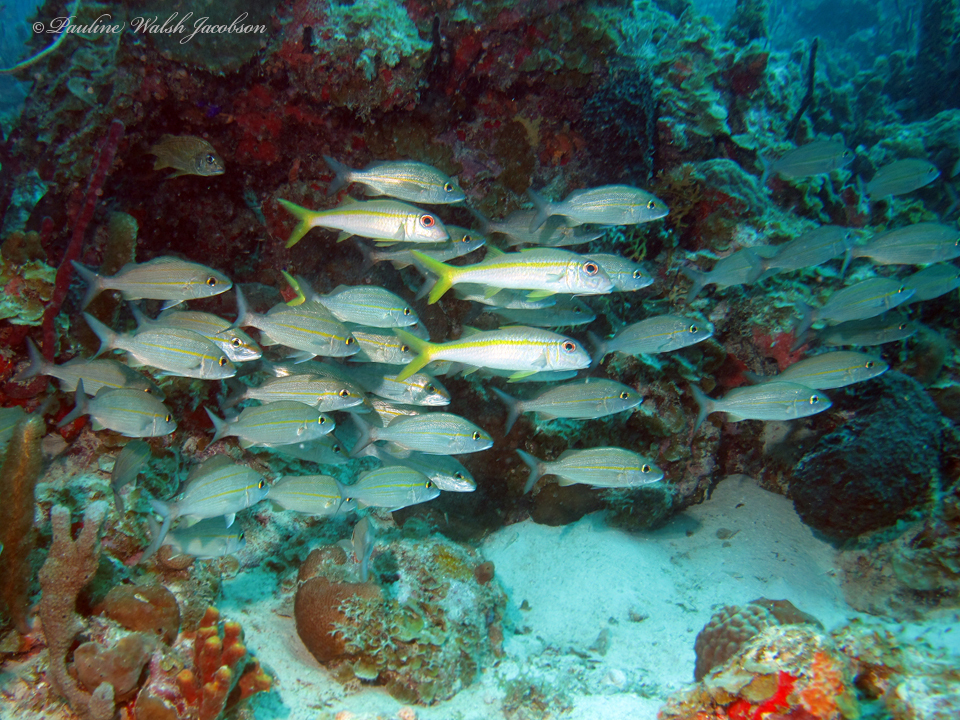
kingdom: Animalia
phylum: Chordata
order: Perciformes
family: Mullidae
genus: Mulloidichthys
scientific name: Mulloidichthys martinicus
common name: Yellow goatfish
